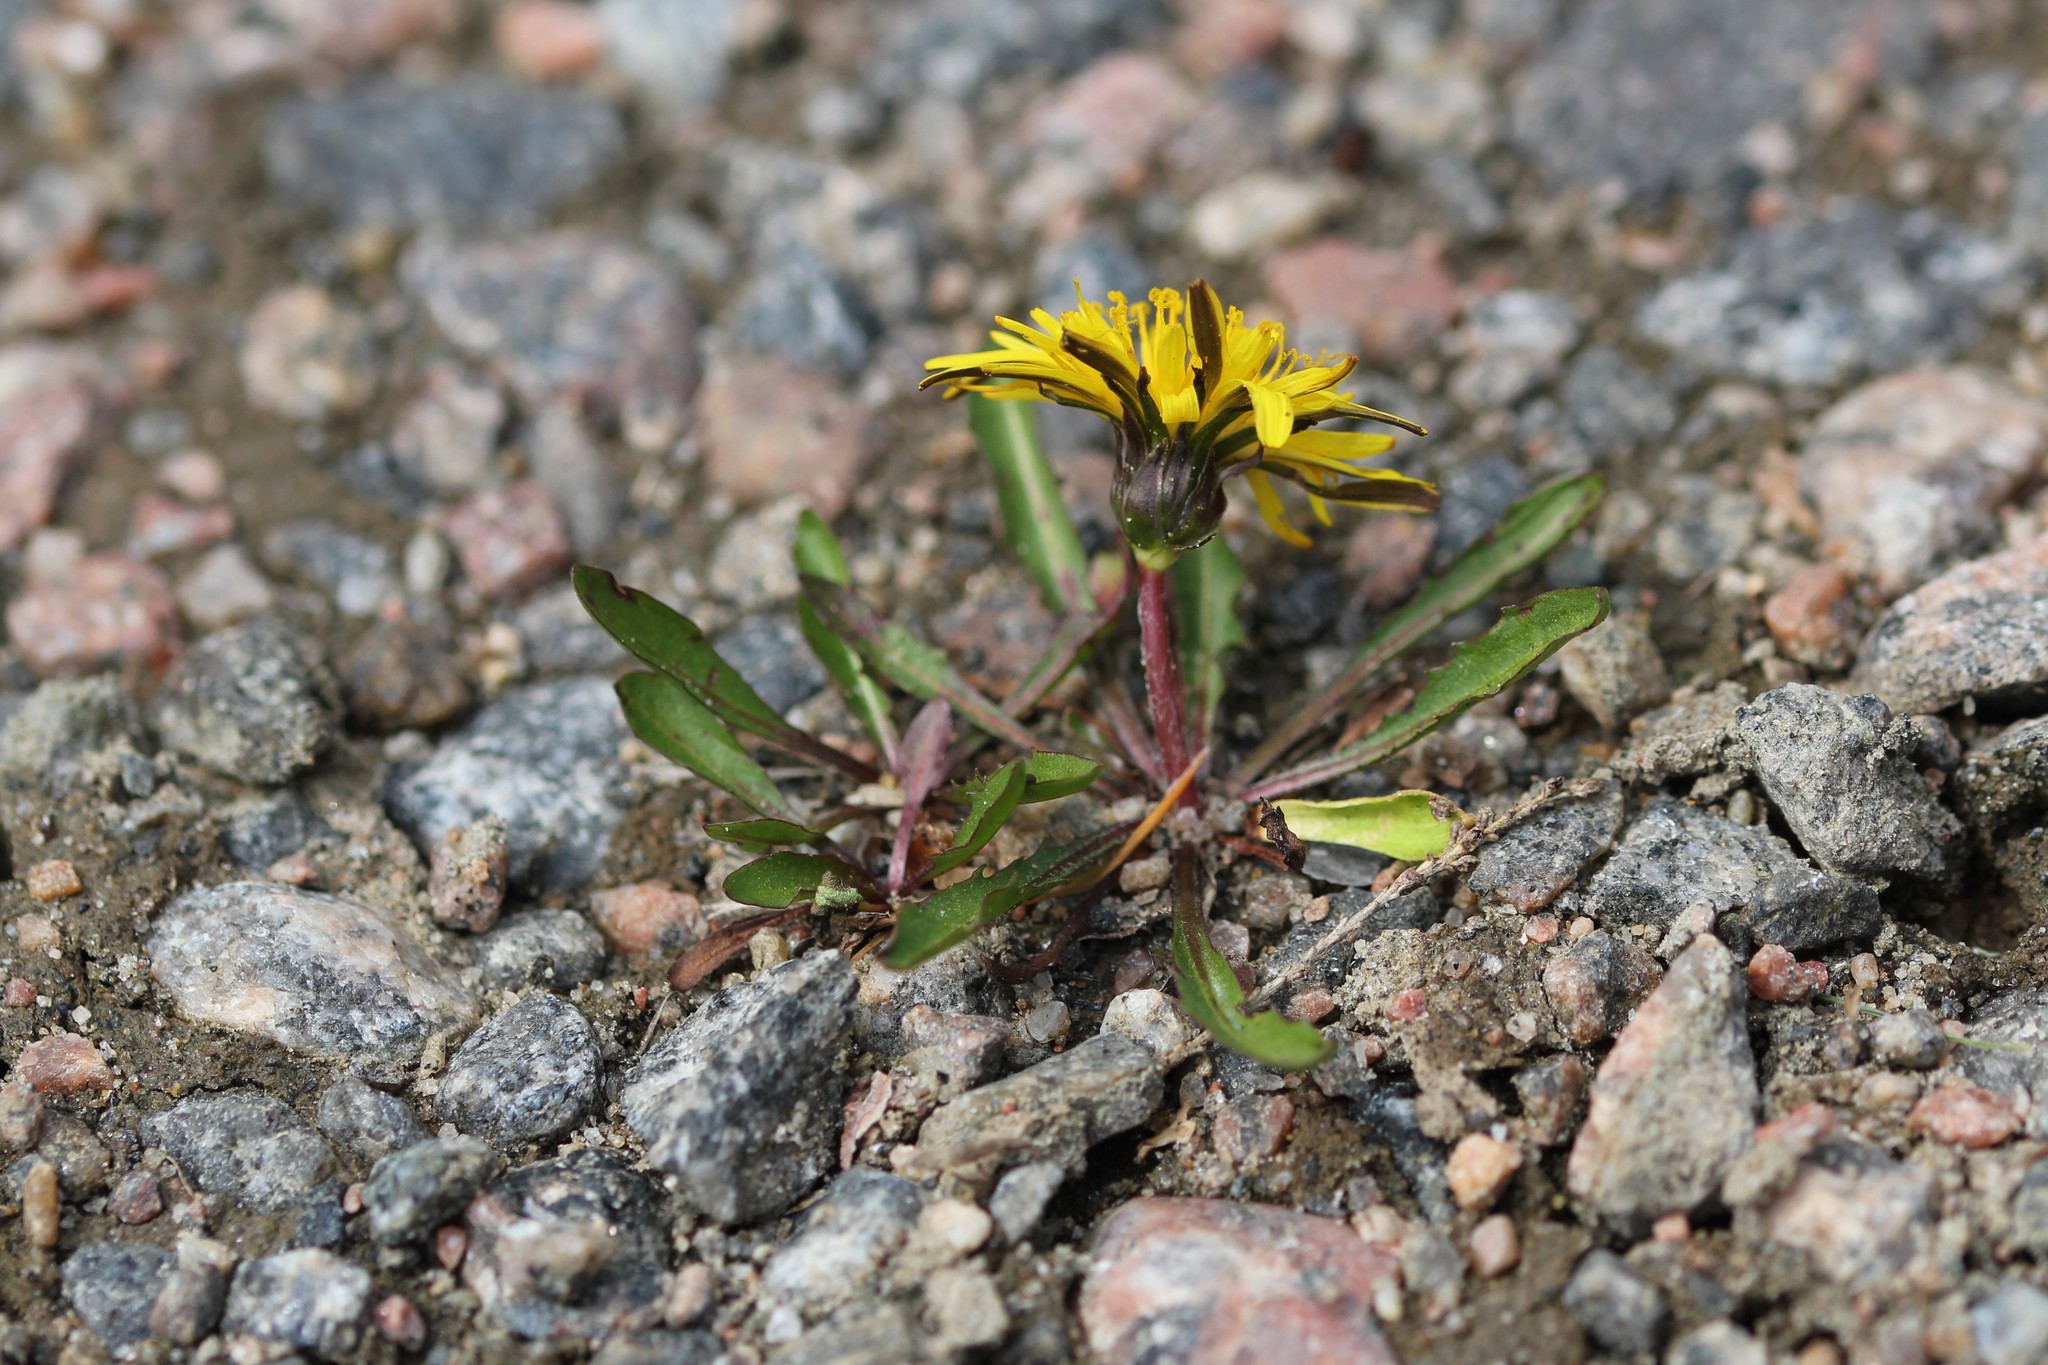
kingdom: Plantae
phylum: Tracheophyta
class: Magnoliopsida
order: Asterales
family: Asteraceae
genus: Taraxacum
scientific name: Taraxacum palustre
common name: Marsh dandelion
